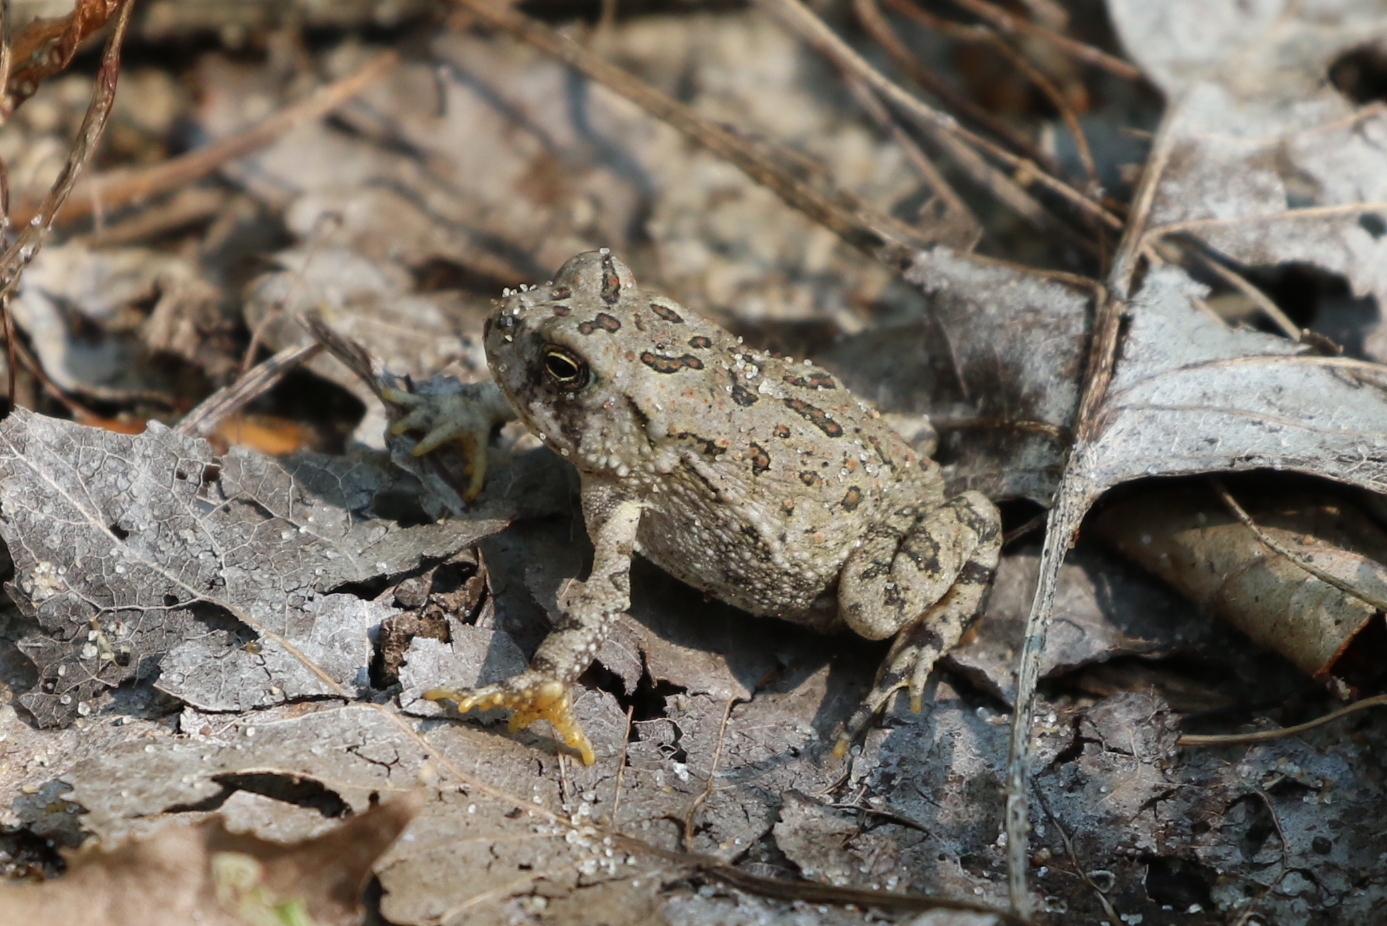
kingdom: Animalia
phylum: Chordata
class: Amphibia
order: Anura
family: Bufonidae
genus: Anaxyrus
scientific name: Anaxyrus fowleri
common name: Fowler's toad
